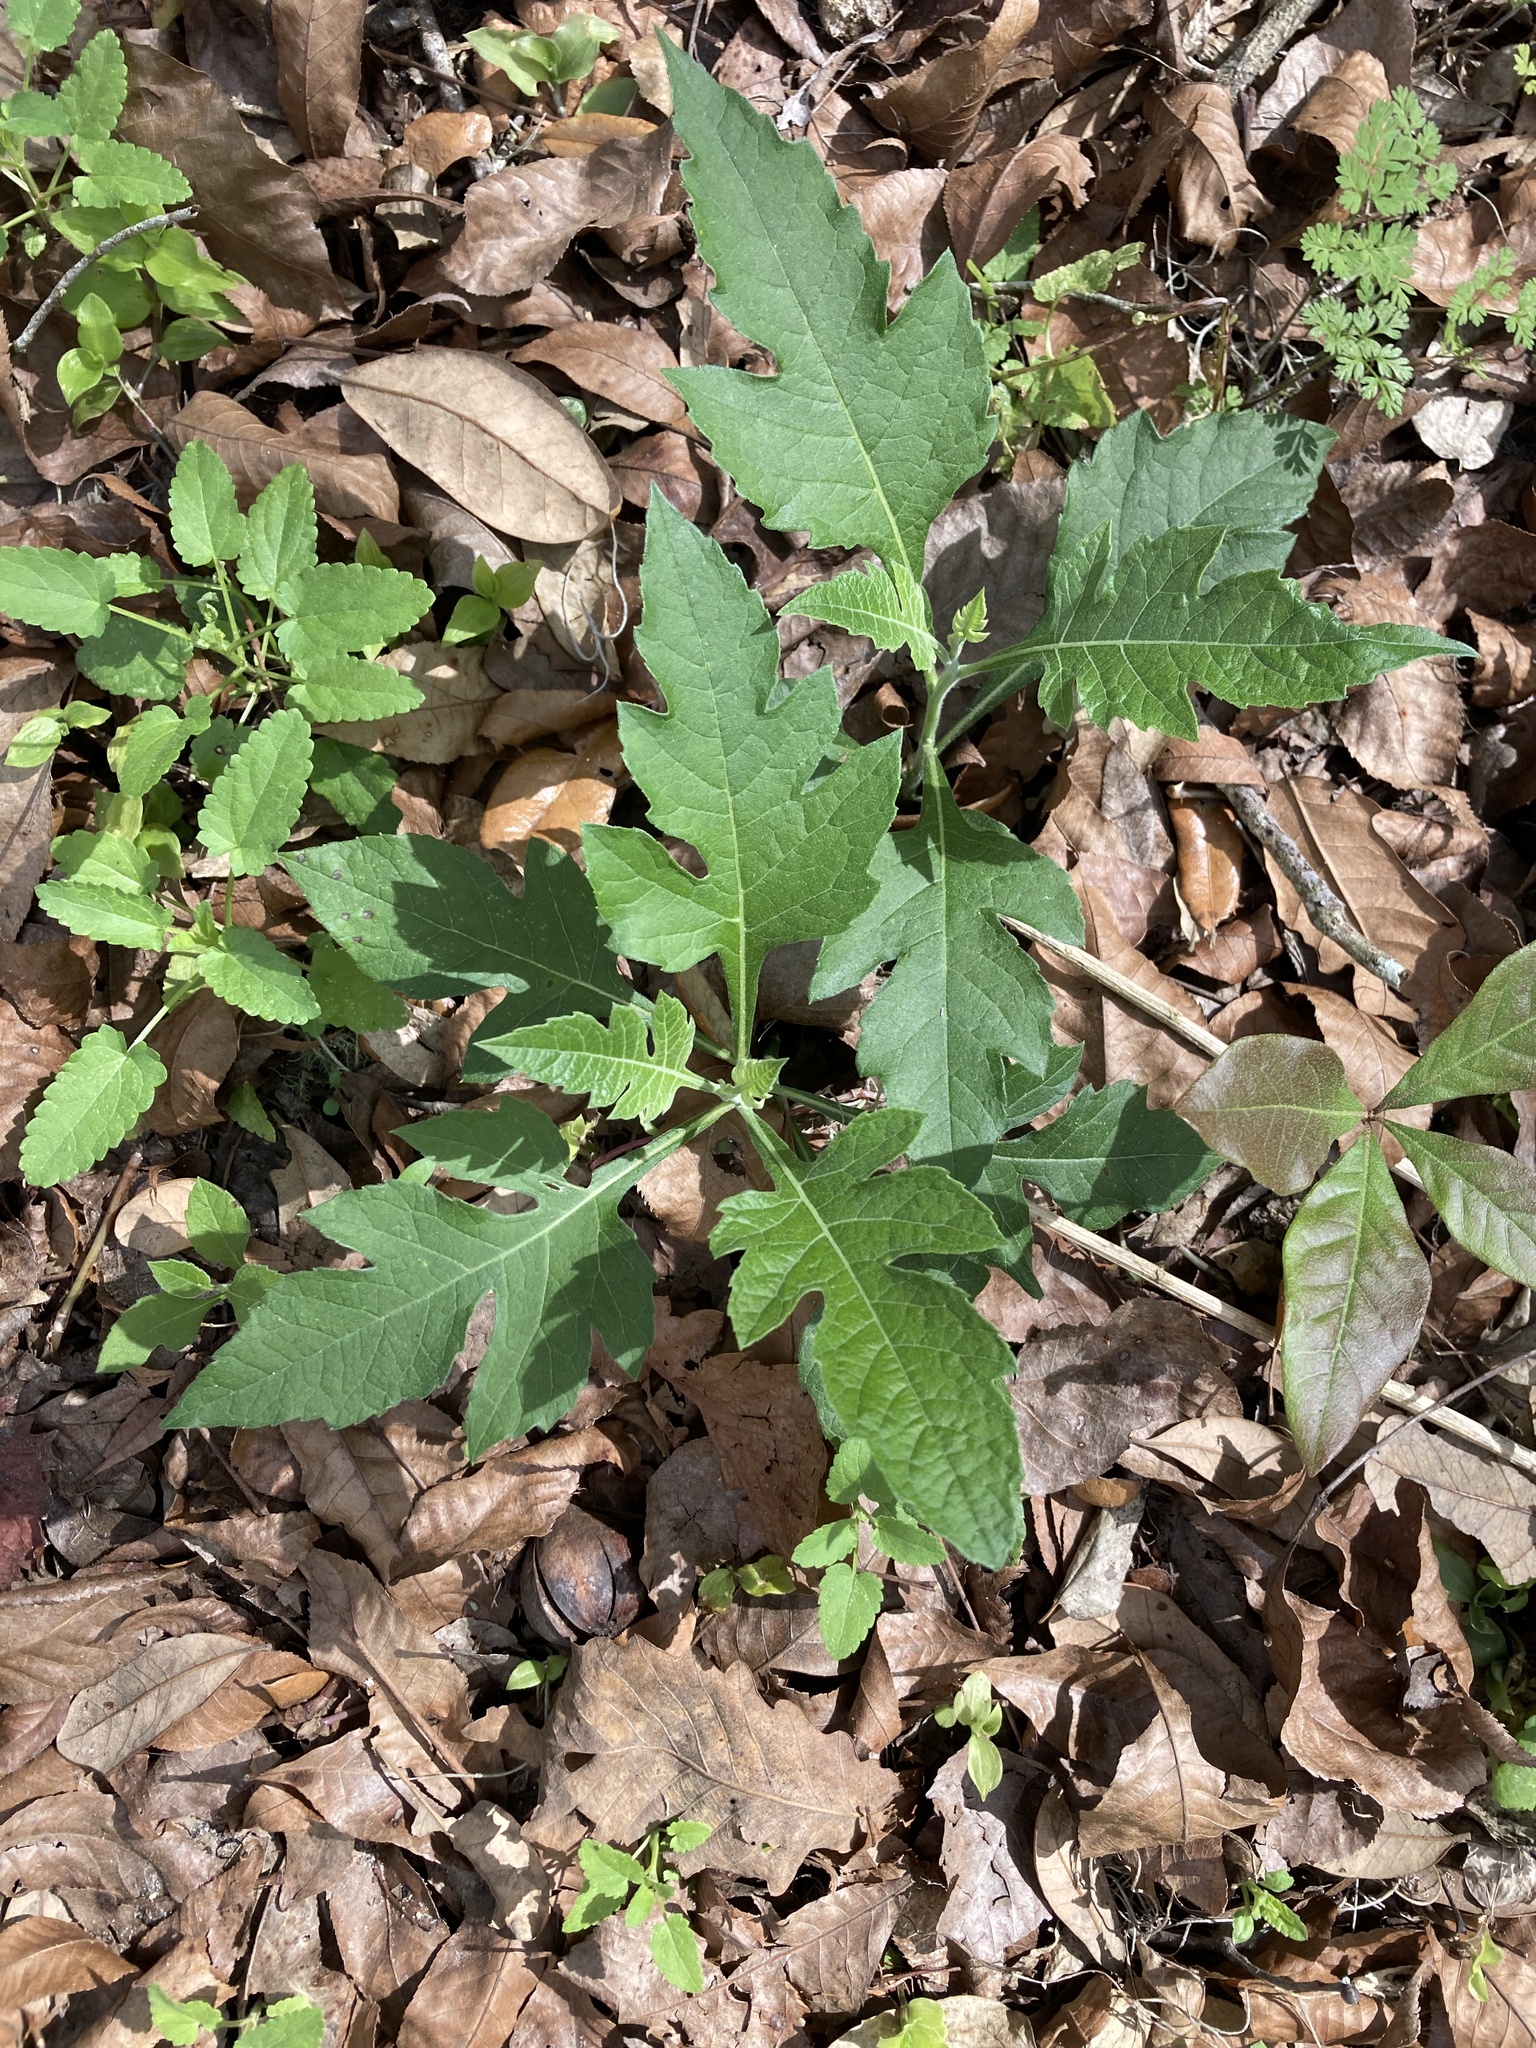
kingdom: Plantae
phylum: Tracheophyta
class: Magnoliopsida
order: Asterales
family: Asteraceae
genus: Verbesina
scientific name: Verbesina virginica
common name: Frostweed
